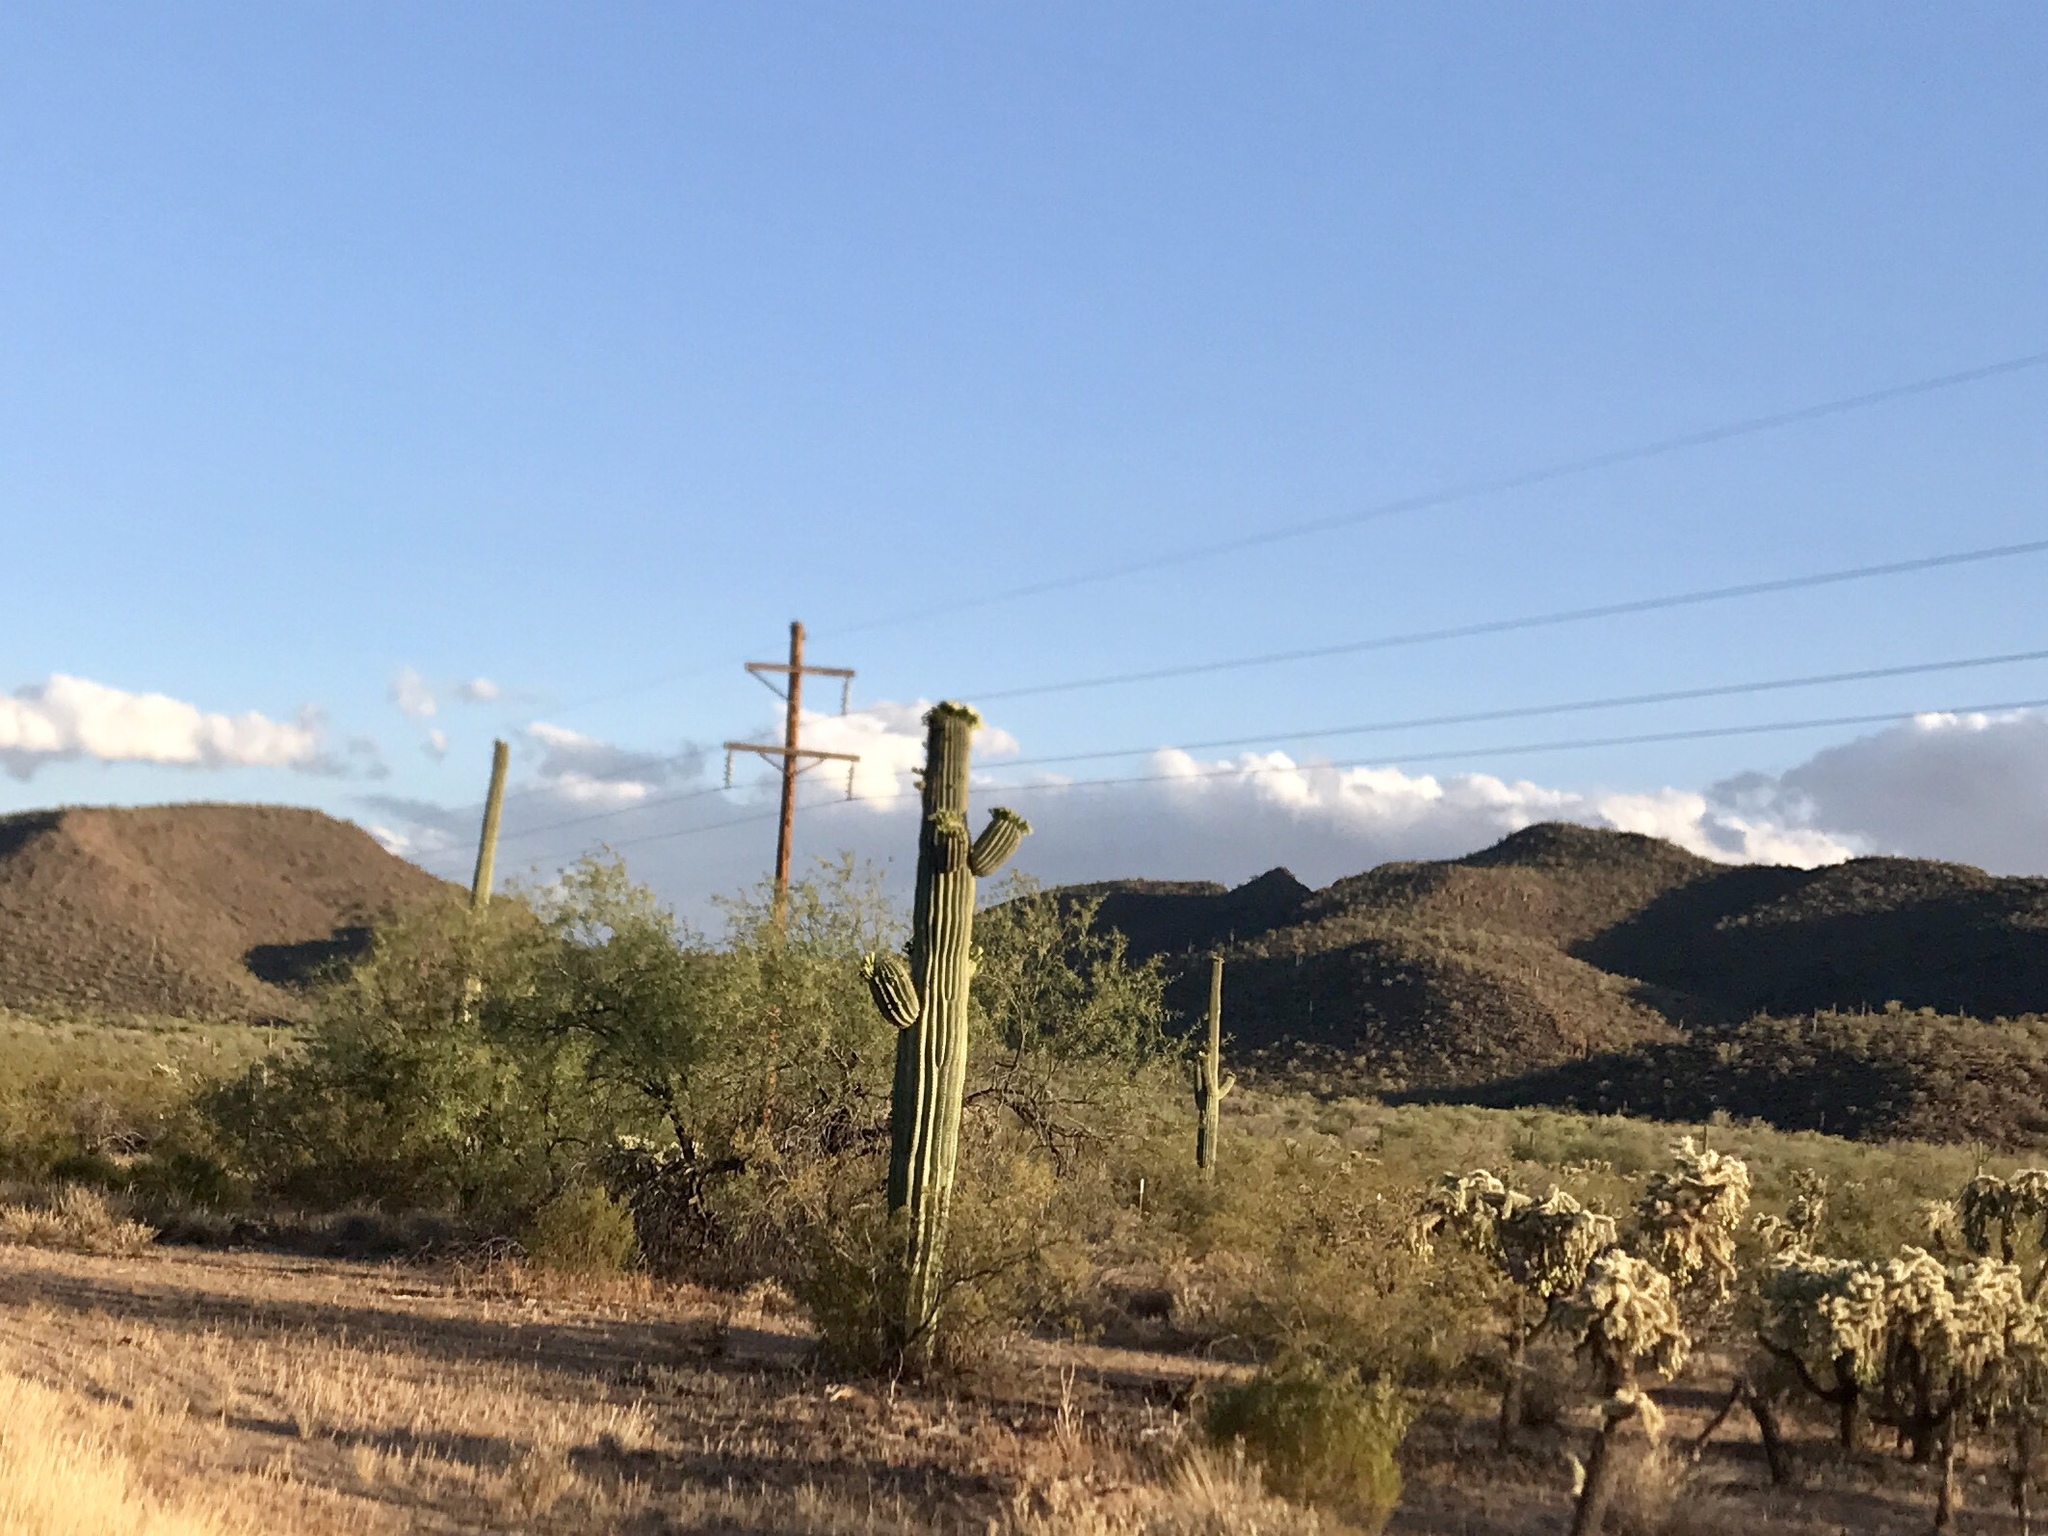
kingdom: Plantae
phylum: Tracheophyta
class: Magnoliopsida
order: Caryophyllales
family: Cactaceae
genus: Carnegiea
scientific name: Carnegiea gigantea
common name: Saguaro
